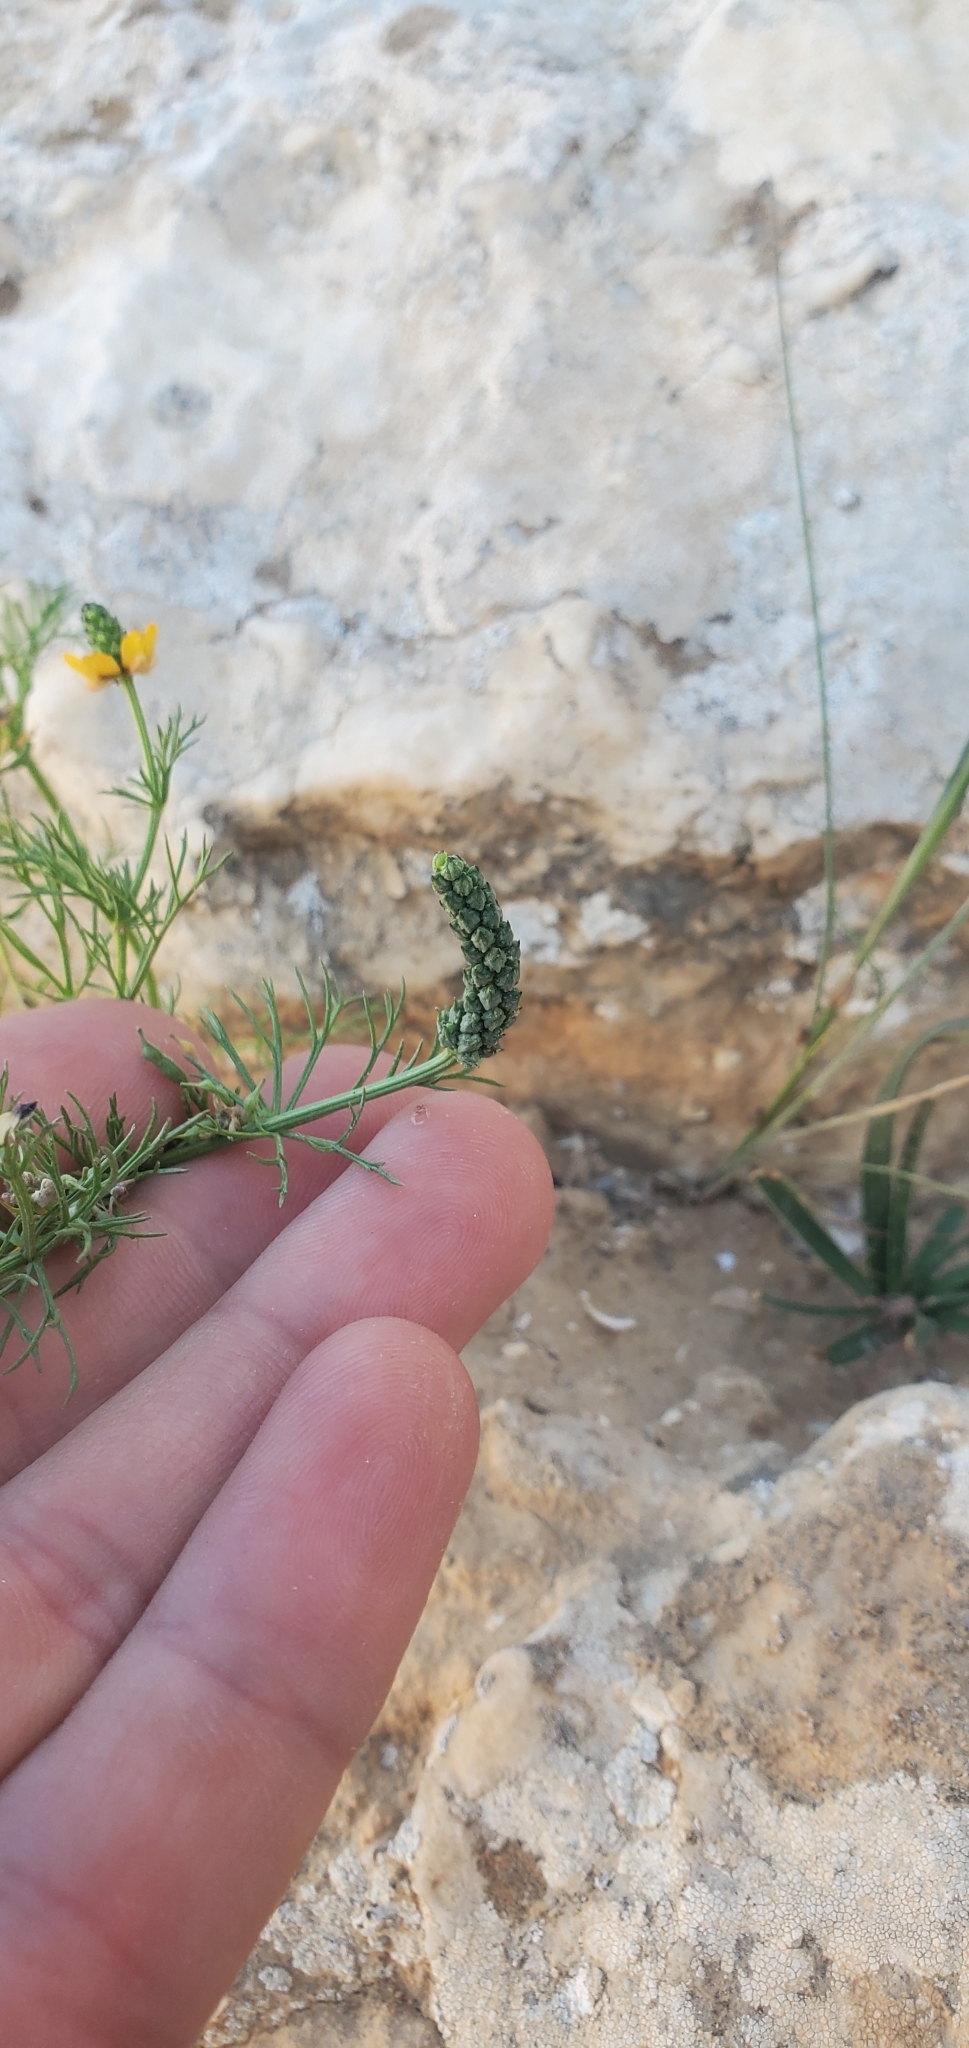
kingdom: Plantae
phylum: Tracheophyta
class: Magnoliopsida
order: Ranunculales
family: Ranunculaceae
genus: Adonis
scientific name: Adonis dentata
